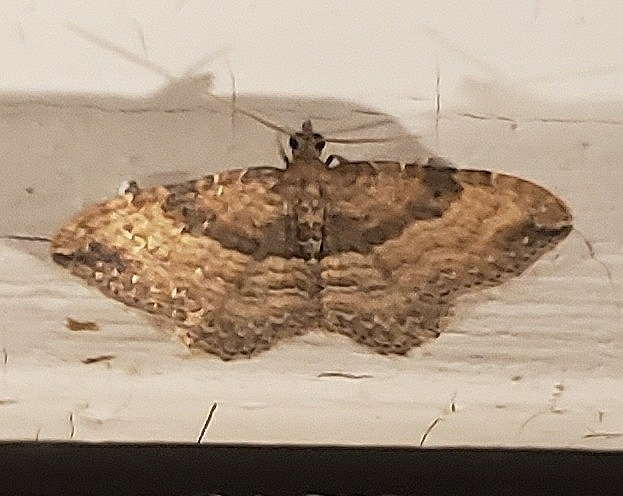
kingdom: Animalia
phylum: Arthropoda
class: Insecta
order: Lepidoptera
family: Geometridae
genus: Orthonama
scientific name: Orthonama obstipata
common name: The gem
